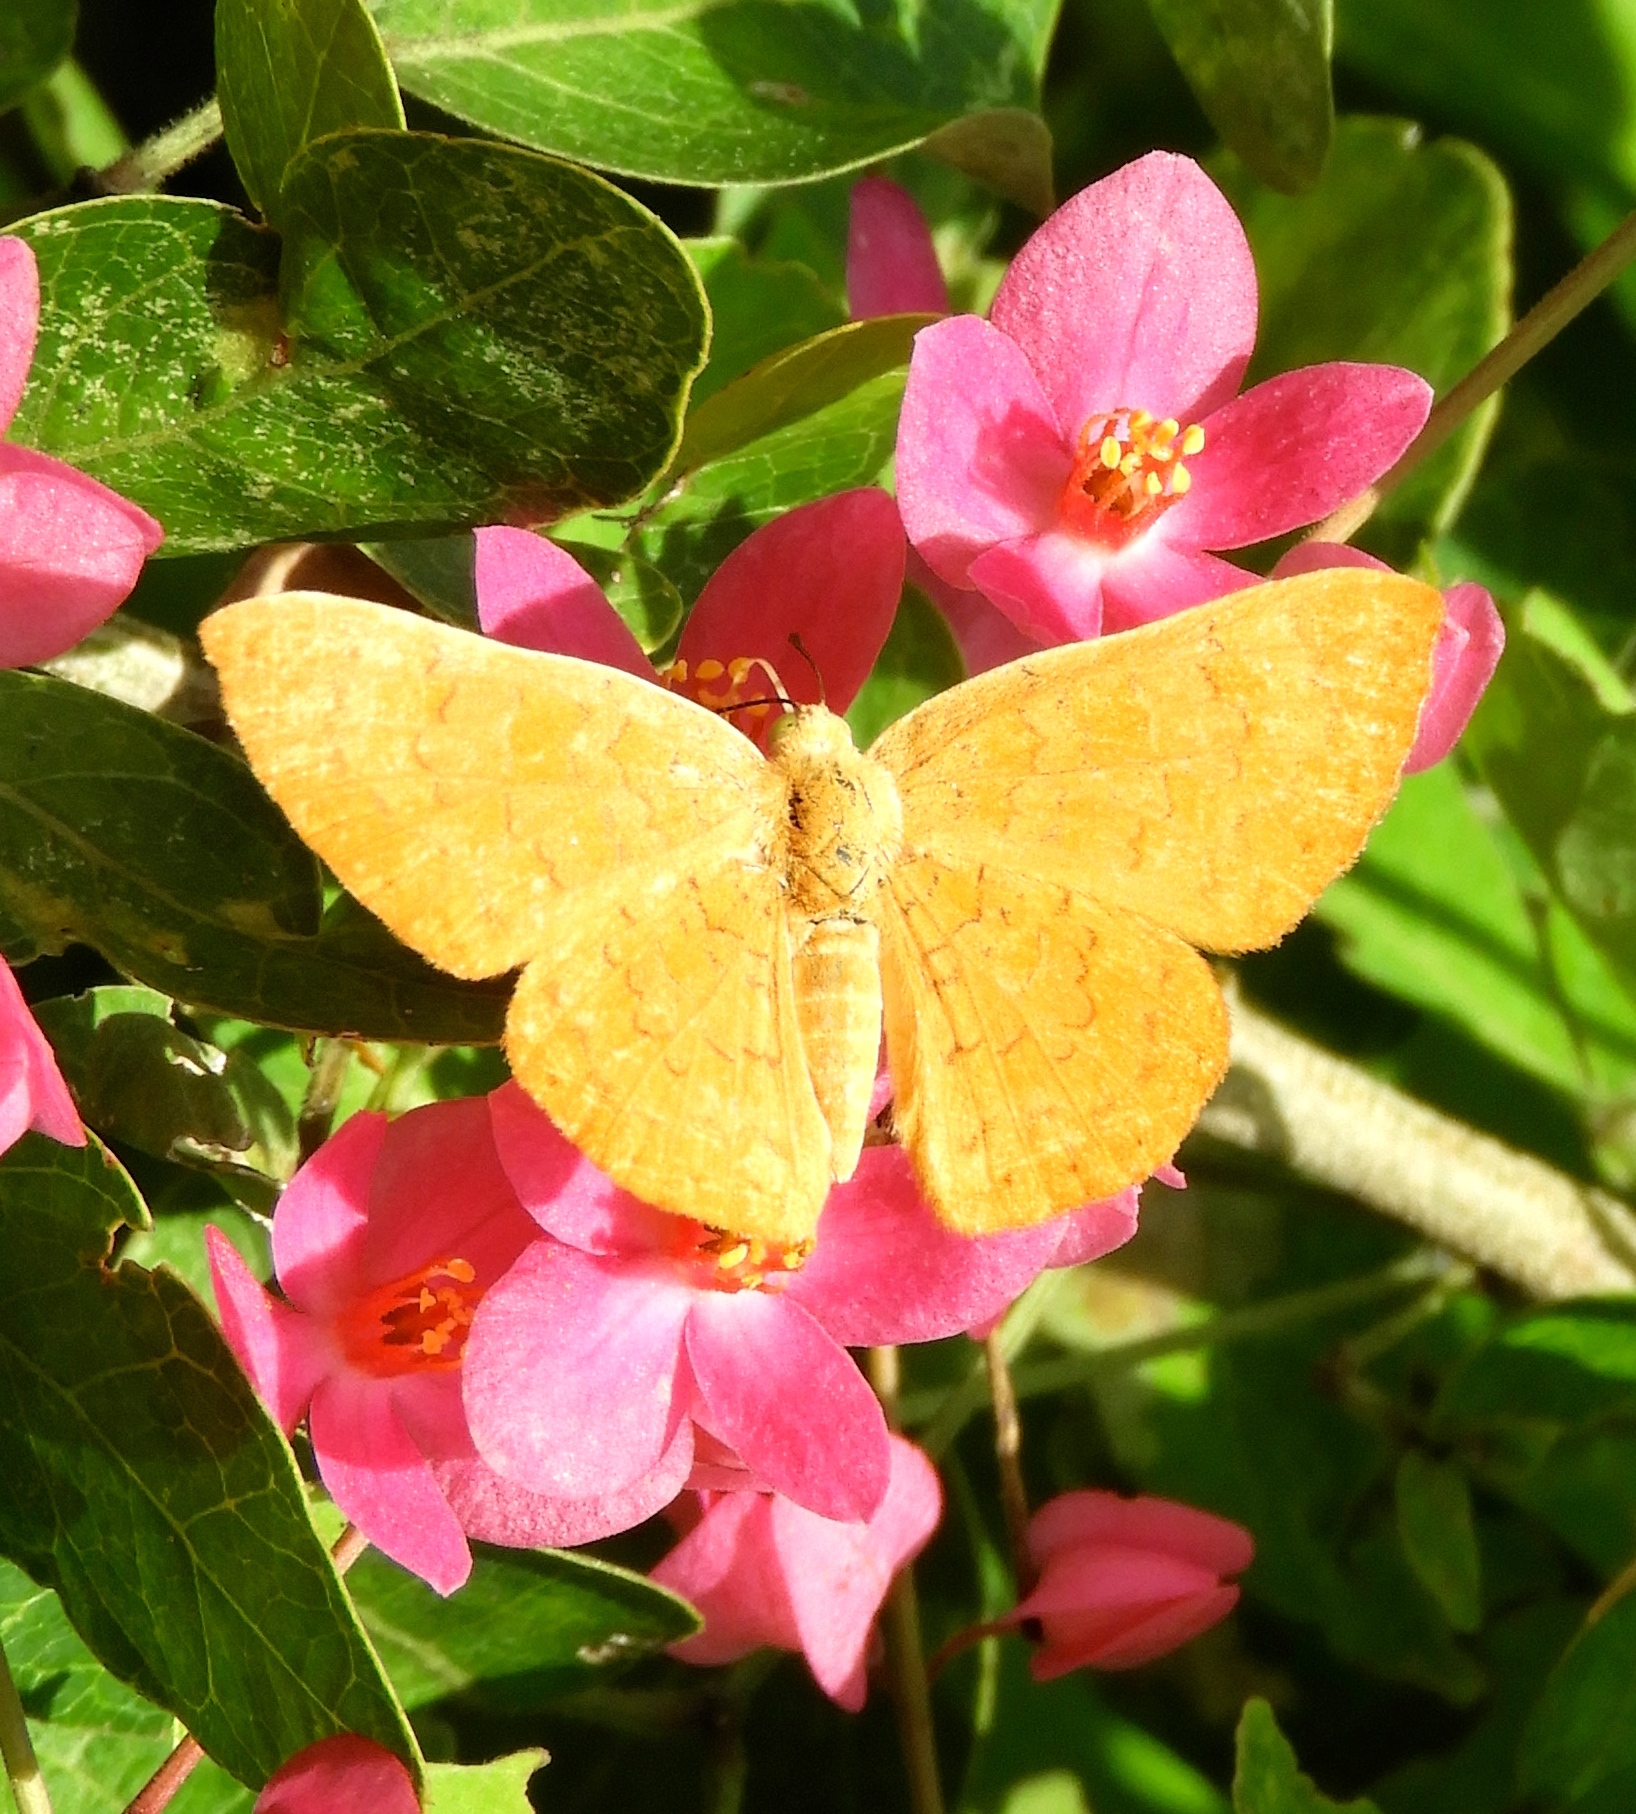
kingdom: Animalia
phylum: Arthropoda
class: Insecta
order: Lepidoptera
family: Lycaenidae
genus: Emesis
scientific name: Emesis
